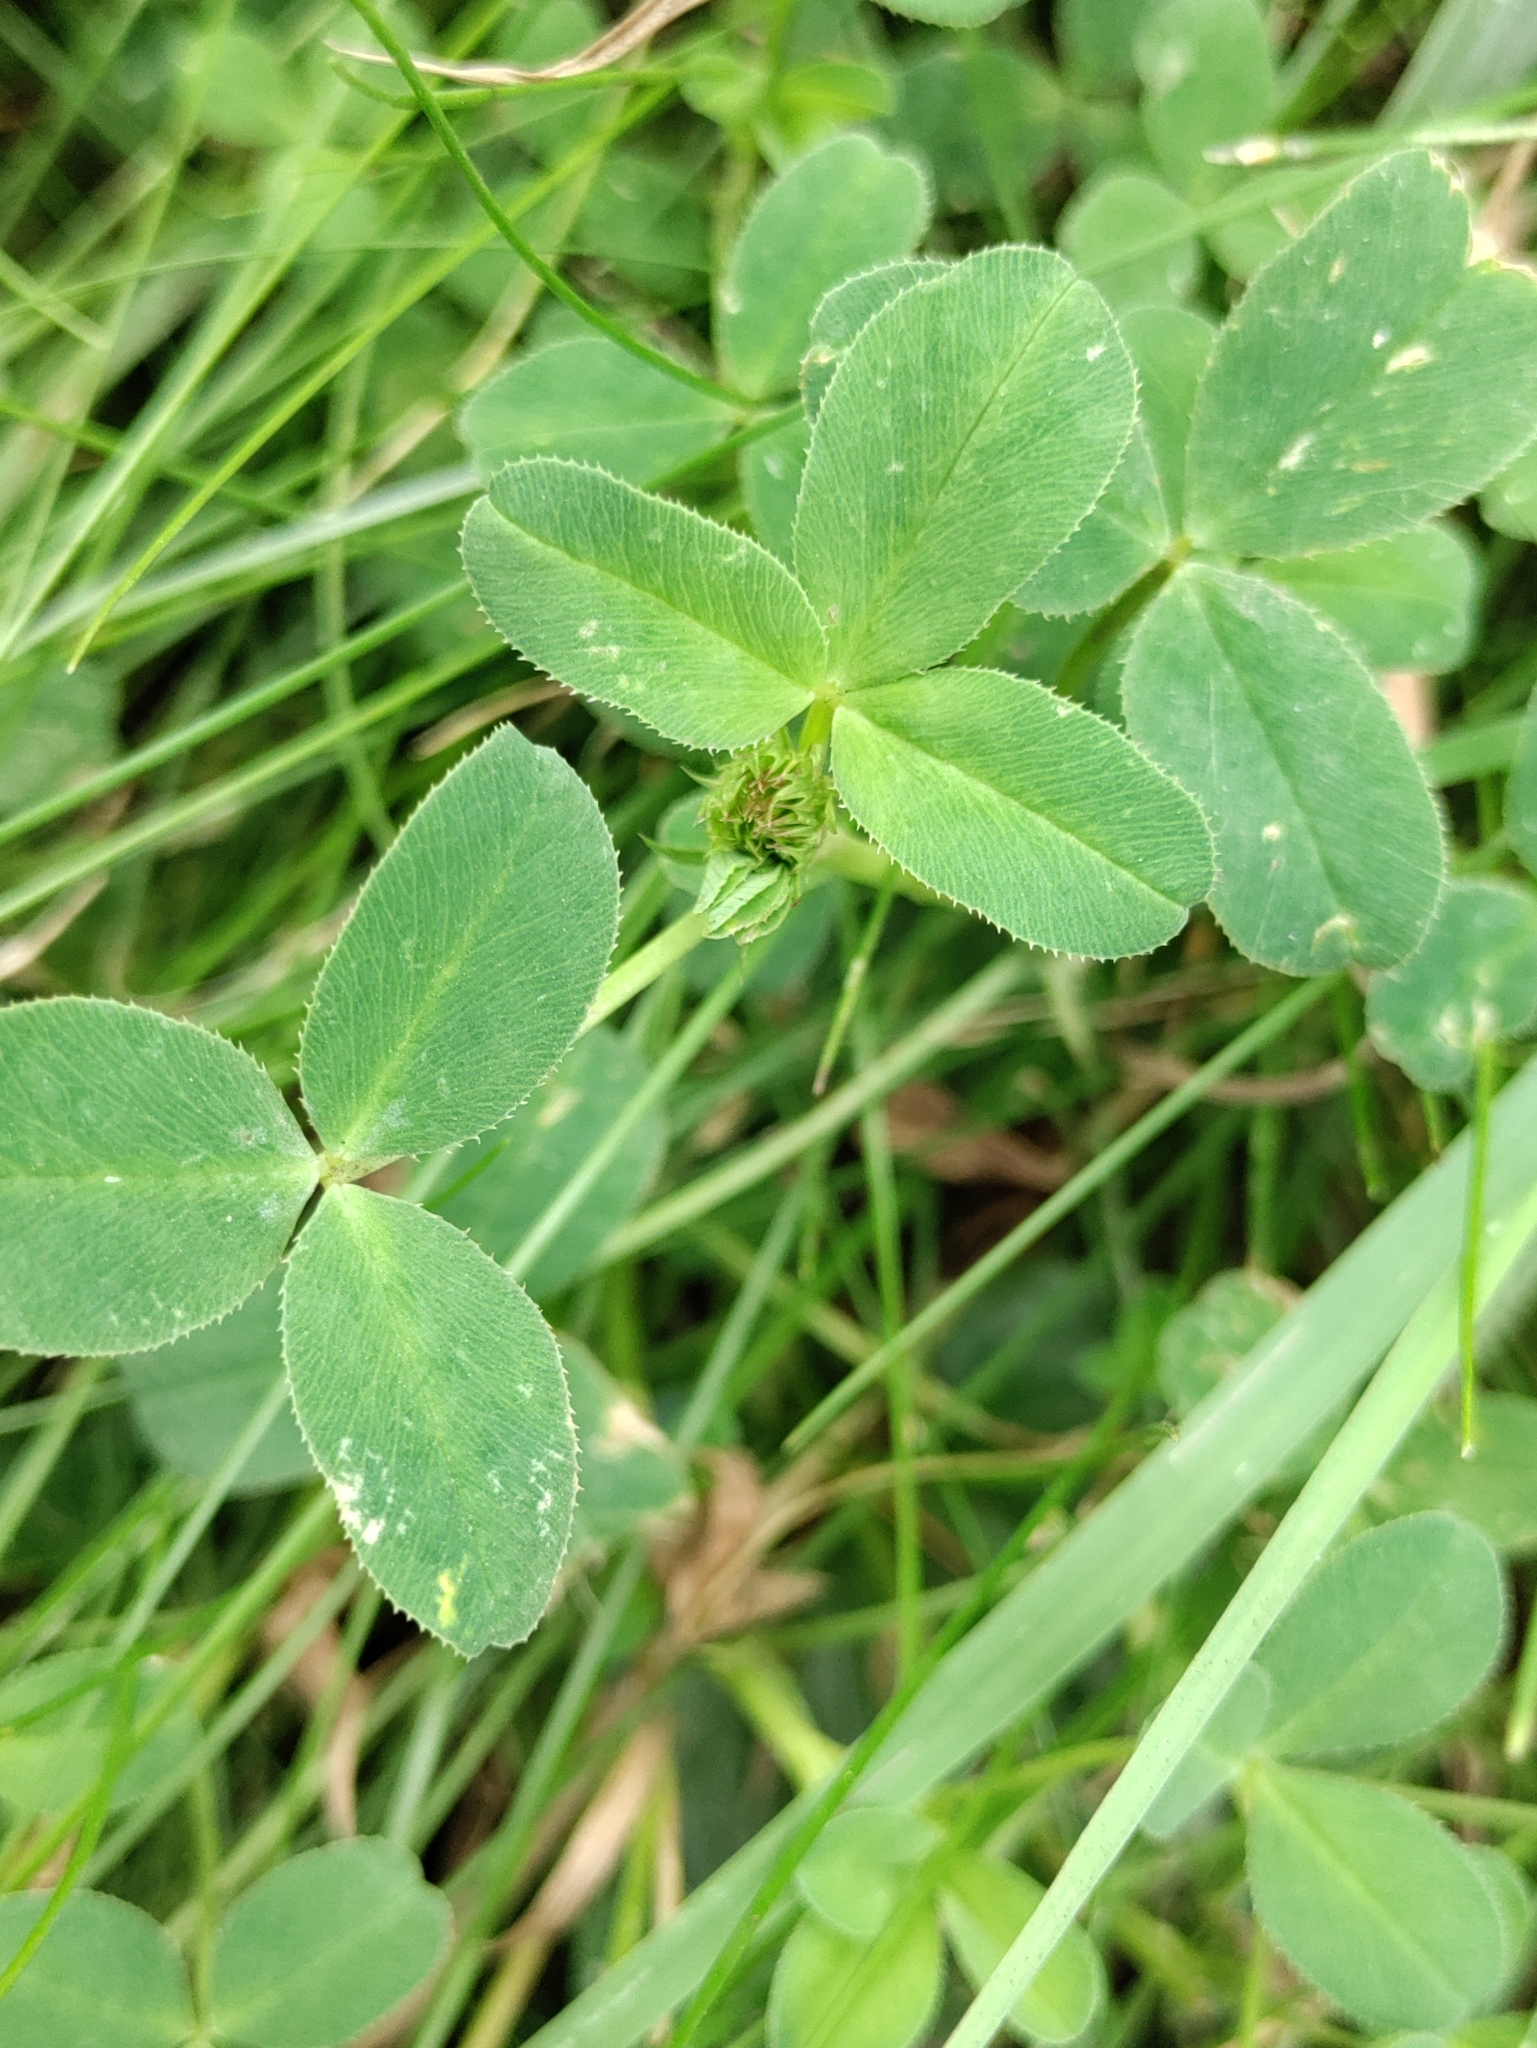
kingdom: Plantae
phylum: Tracheophyta
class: Magnoliopsida
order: Fabales
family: Fabaceae
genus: Trifolium
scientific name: Trifolium wormskioldii
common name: Springbank clover
